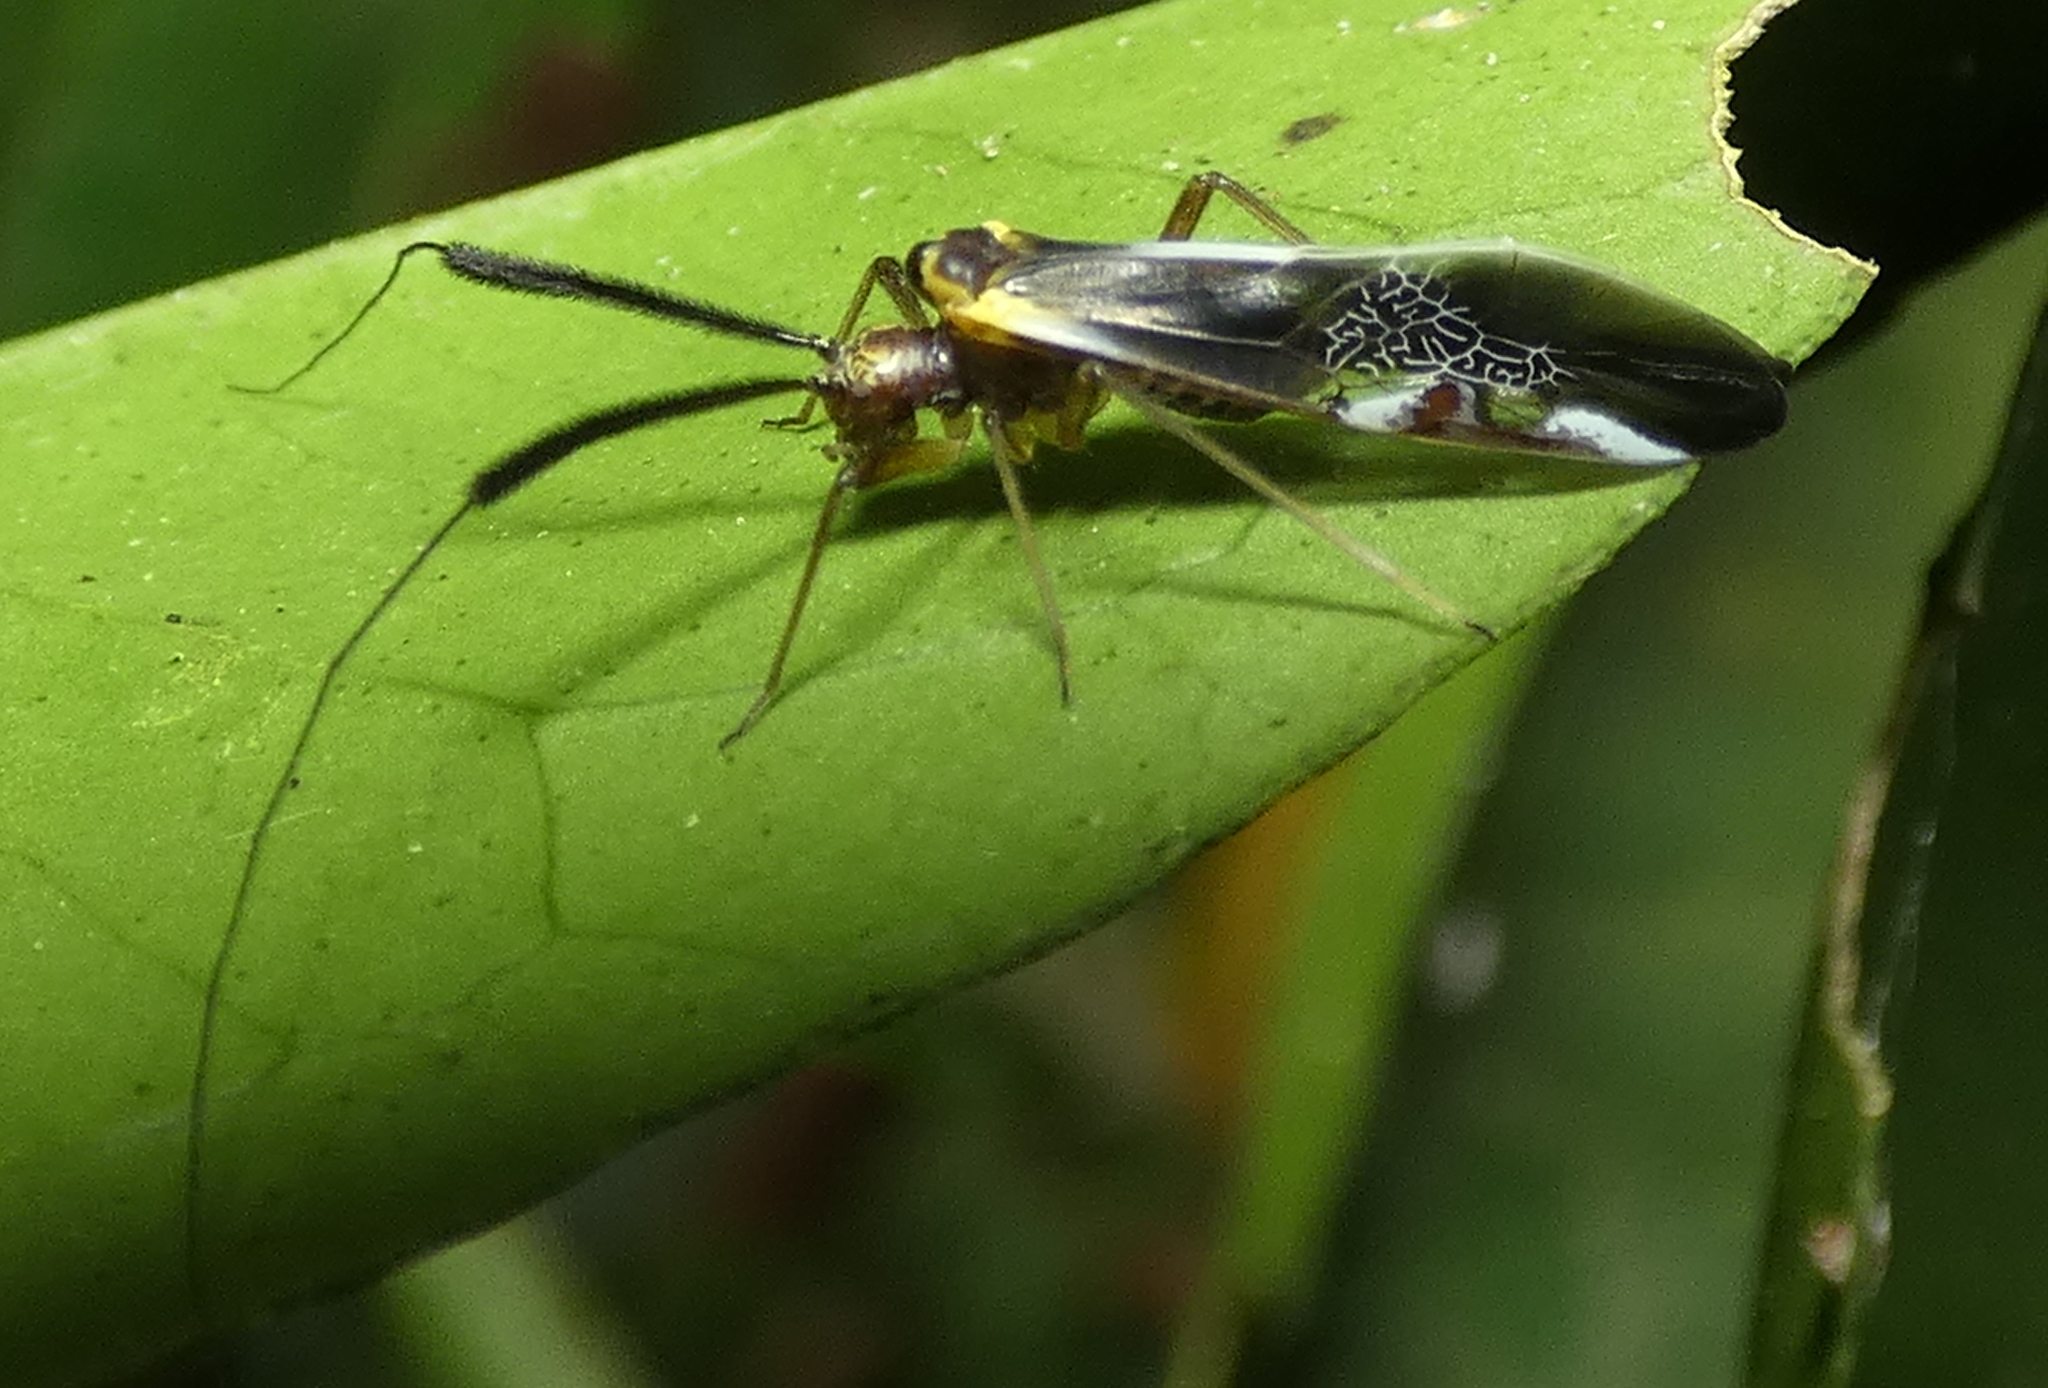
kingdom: Animalia
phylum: Arthropoda
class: Insecta
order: Psocodea
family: Psocidae
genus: Dictyopsocus
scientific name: Dictyopsocus pennicornis
